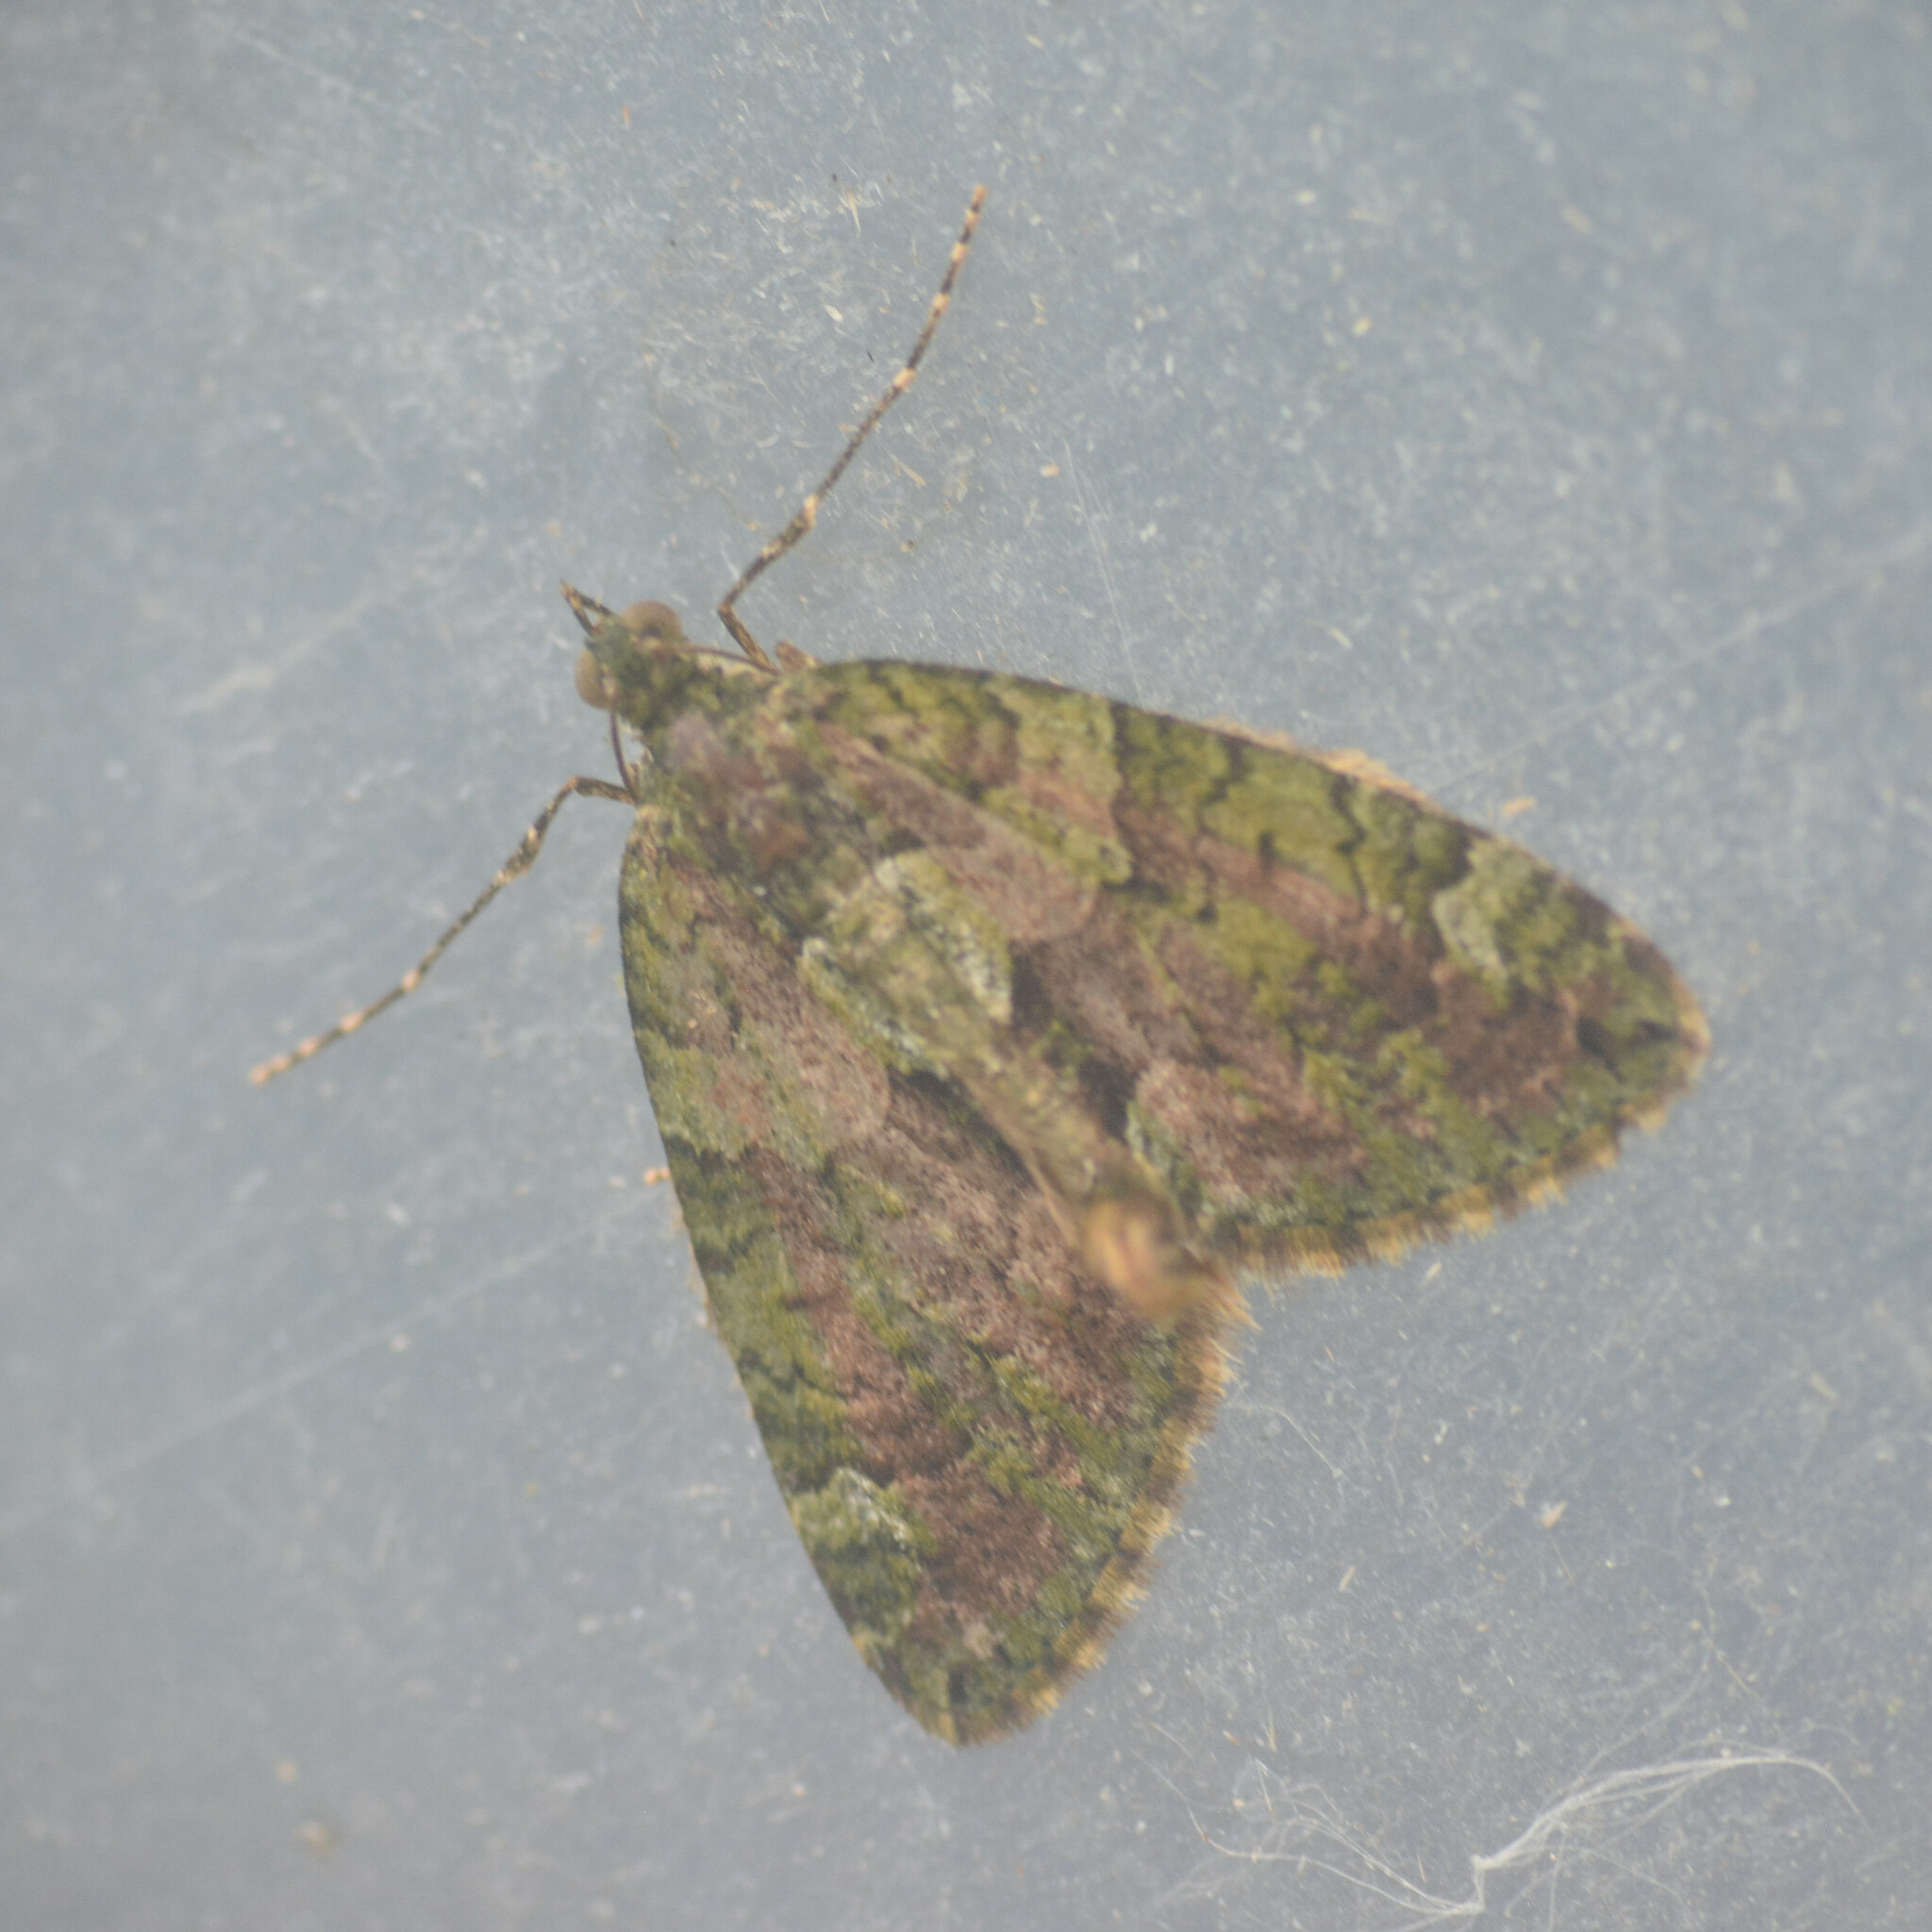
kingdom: Animalia
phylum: Arthropoda
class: Insecta
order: Lepidoptera
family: Geometridae
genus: Chloroclysta
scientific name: Chloroclysta siterata
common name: Red-green carpet
